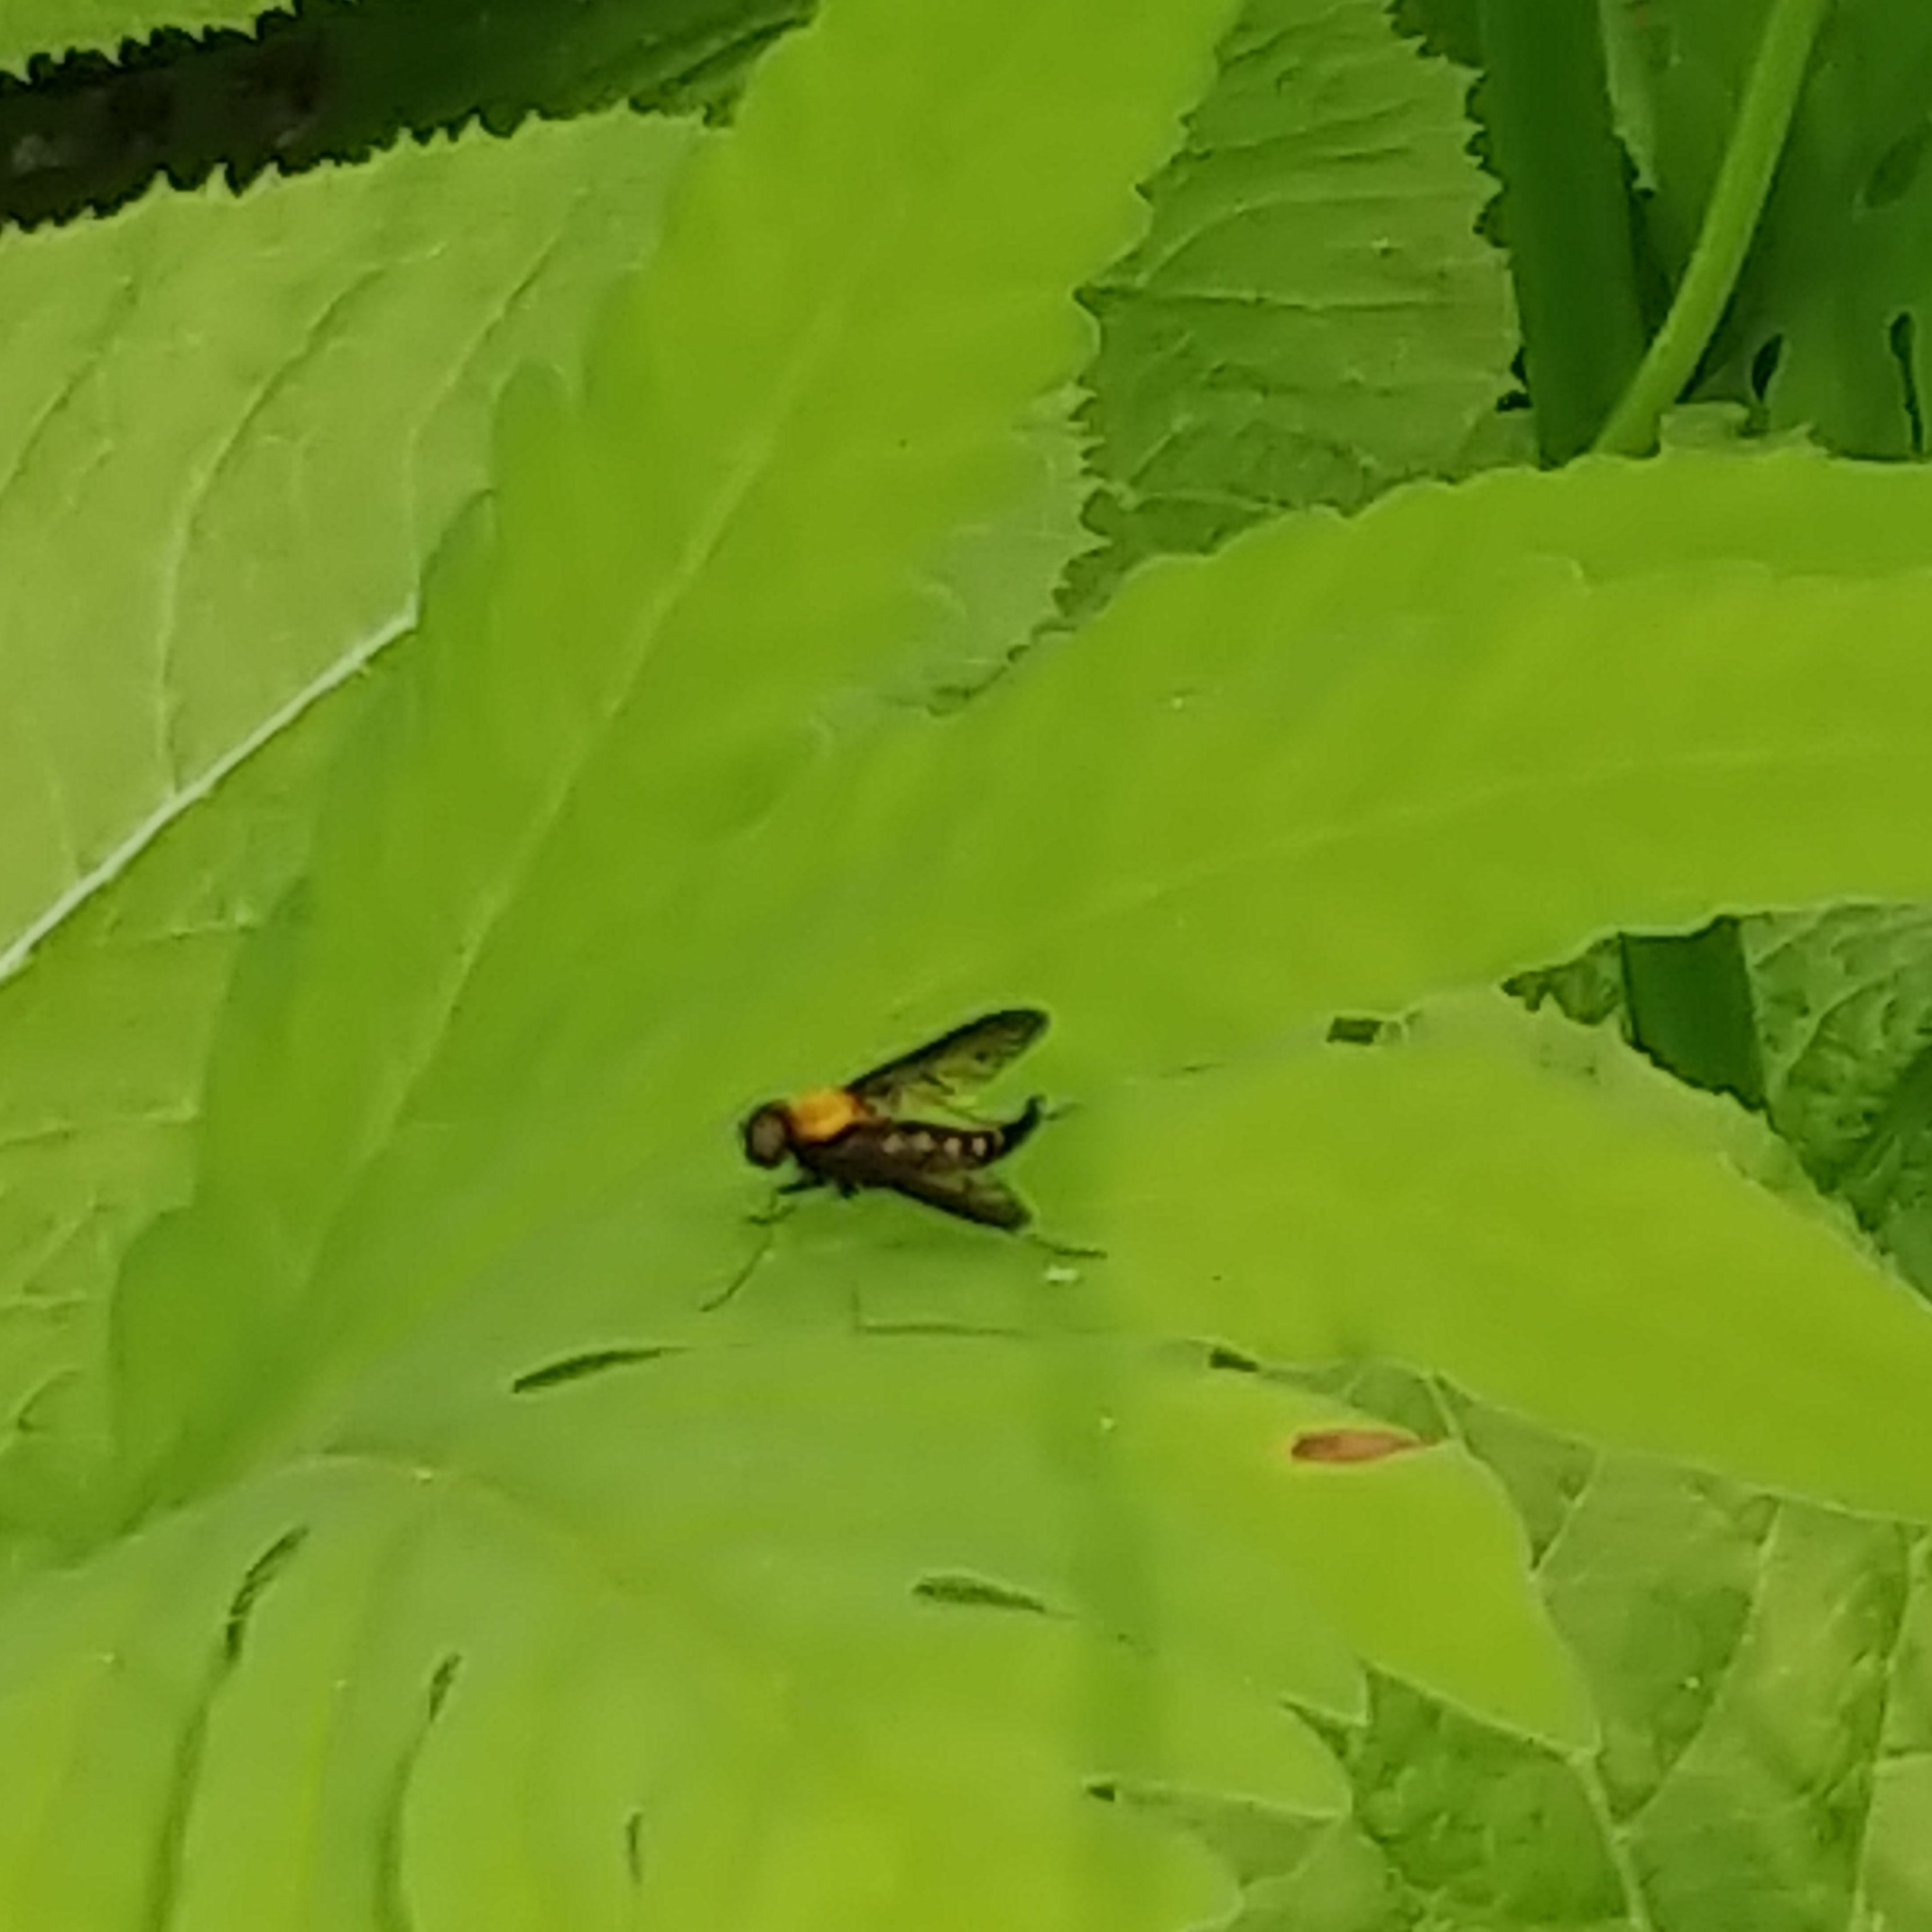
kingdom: Animalia
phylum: Arthropoda
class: Insecta
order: Diptera
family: Rhagionidae
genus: Chrysopilus
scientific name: Chrysopilus thoracicus
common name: Golden-backed snipe fly
